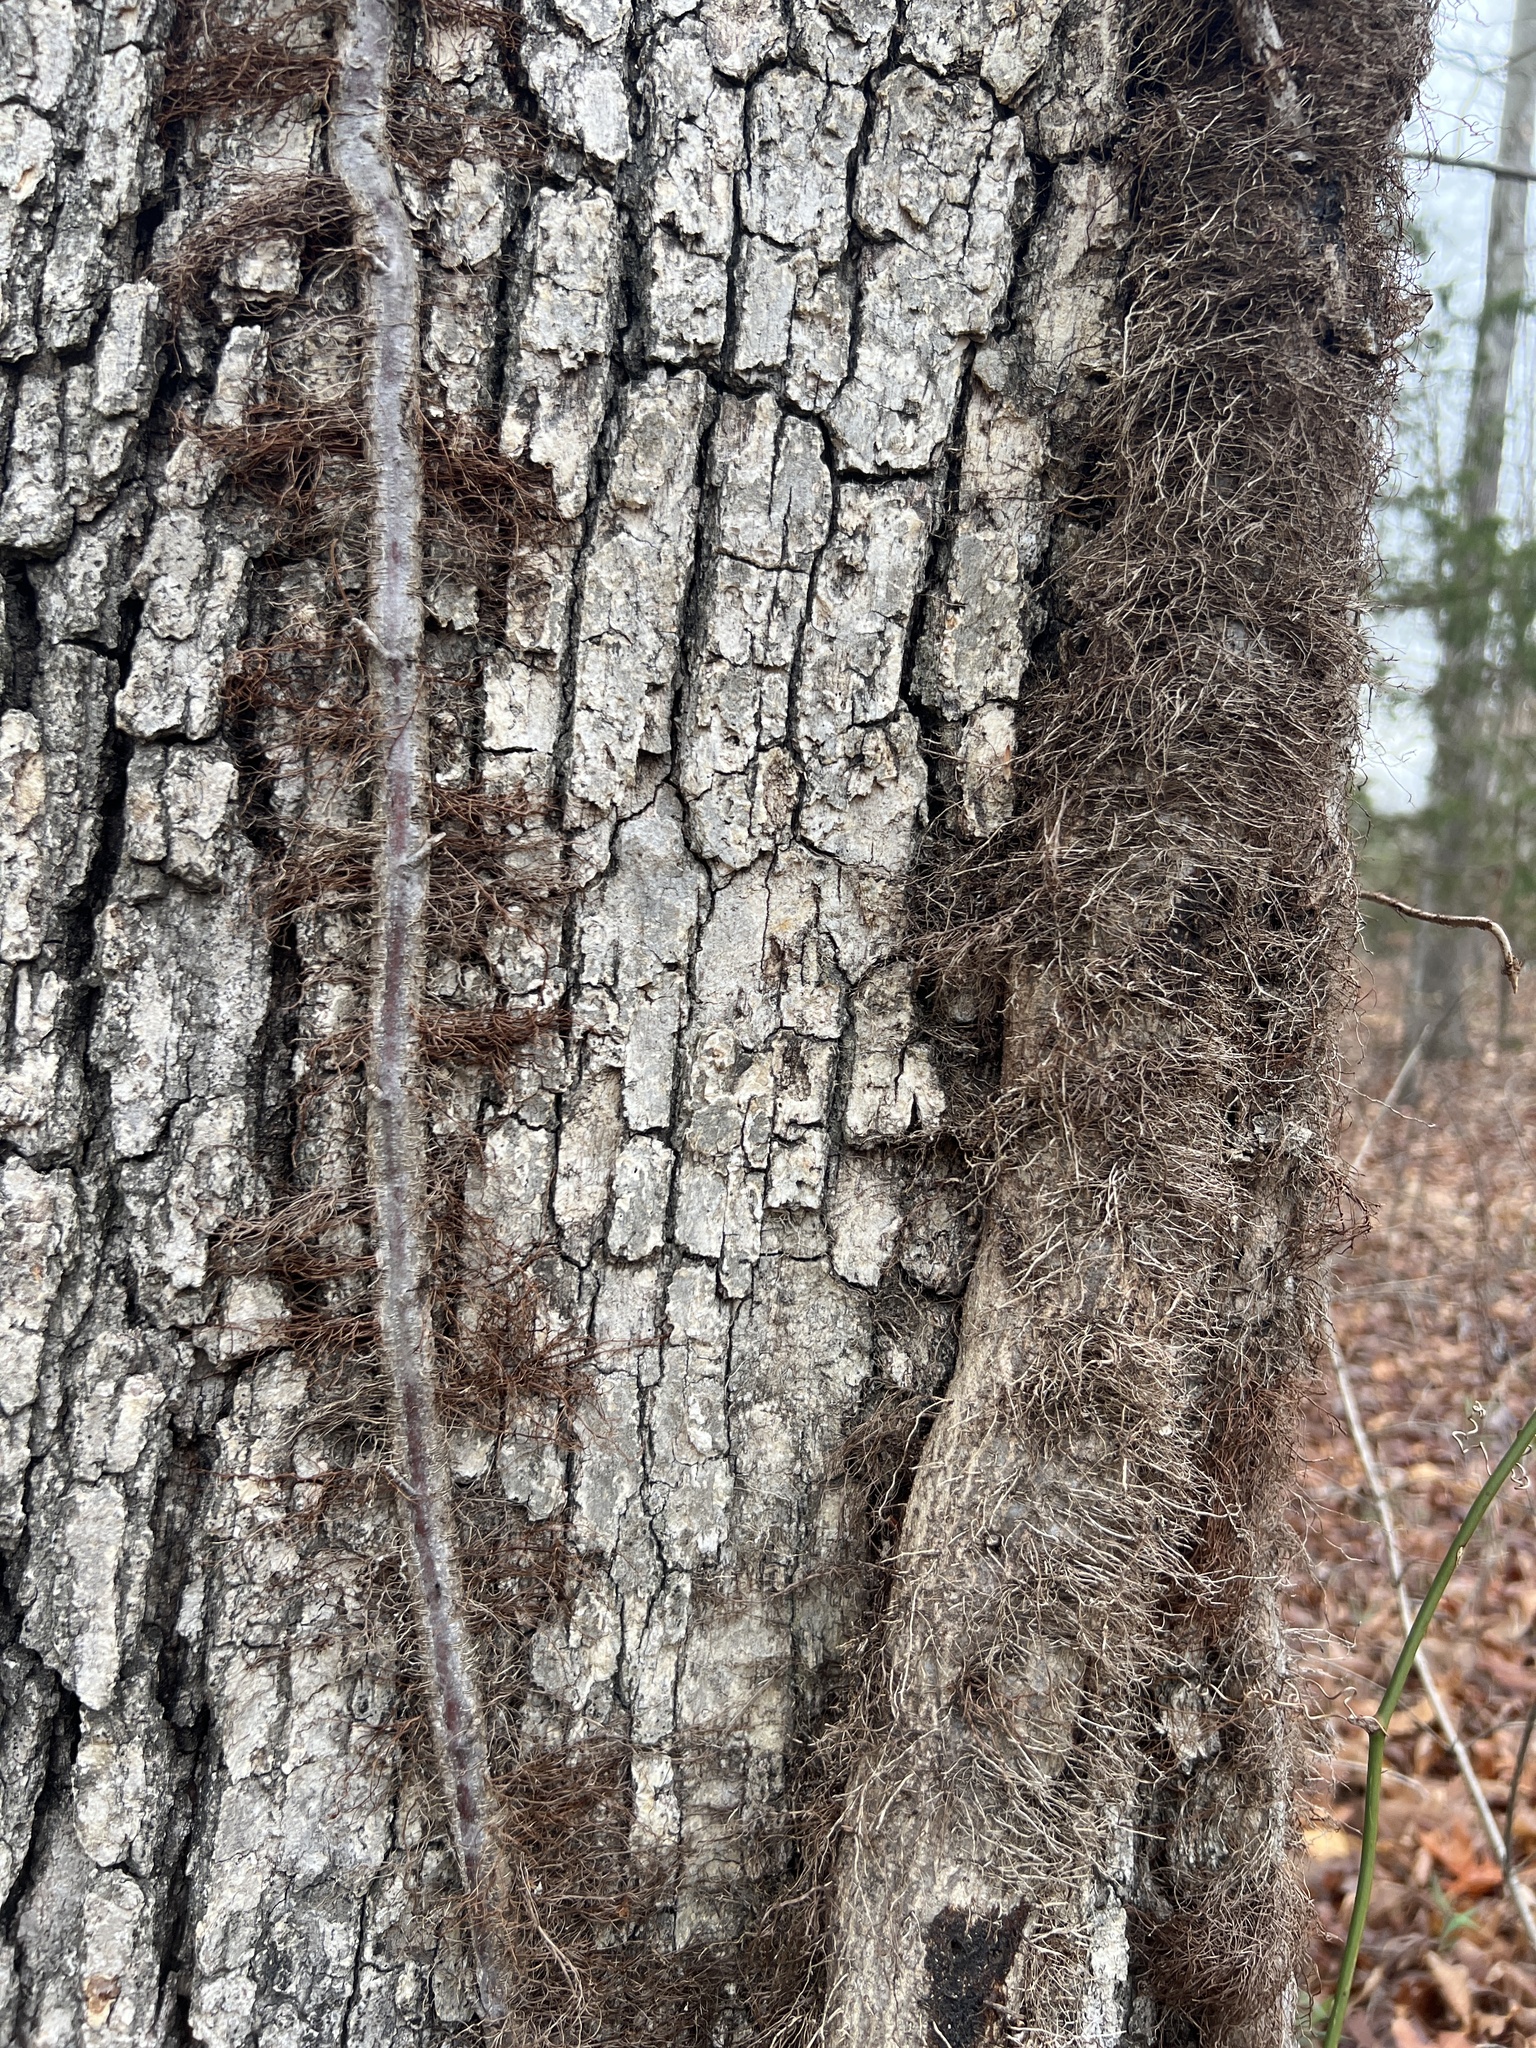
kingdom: Plantae
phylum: Tracheophyta
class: Magnoliopsida
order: Sapindales
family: Anacardiaceae
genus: Toxicodendron
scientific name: Toxicodendron radicans
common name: Poison ivy
